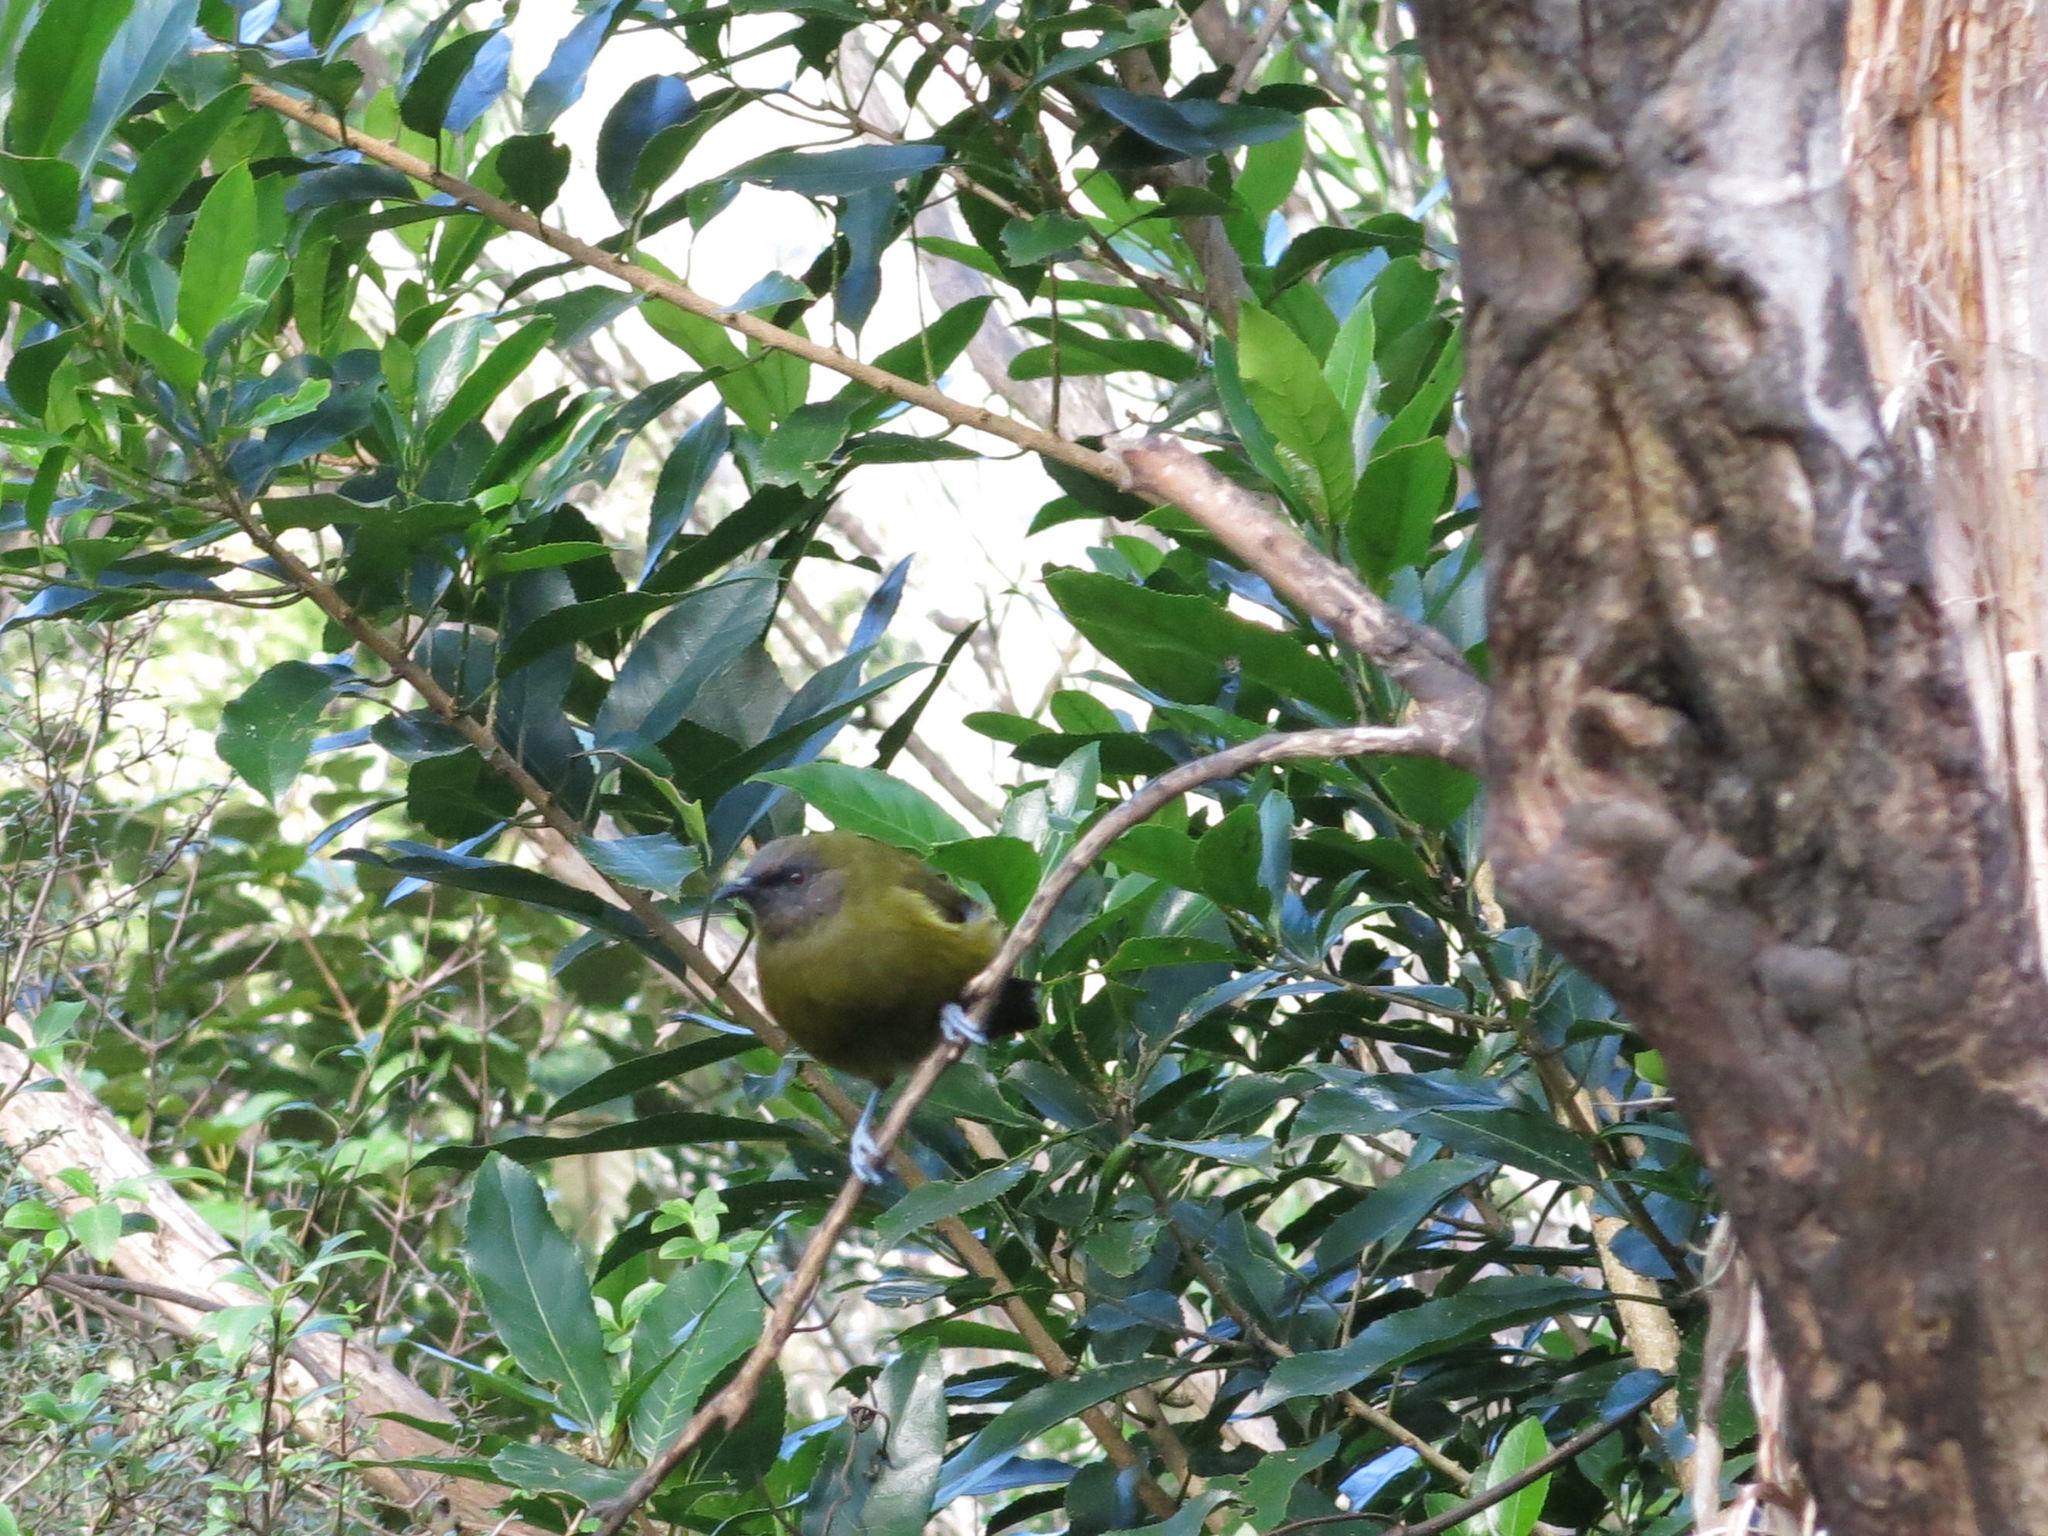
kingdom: Animalia
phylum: Chordata
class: Aves
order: Passeriformes
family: Meliphagidae
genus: Anthornis
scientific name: Anthornis melanura
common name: New zealand bellbird
